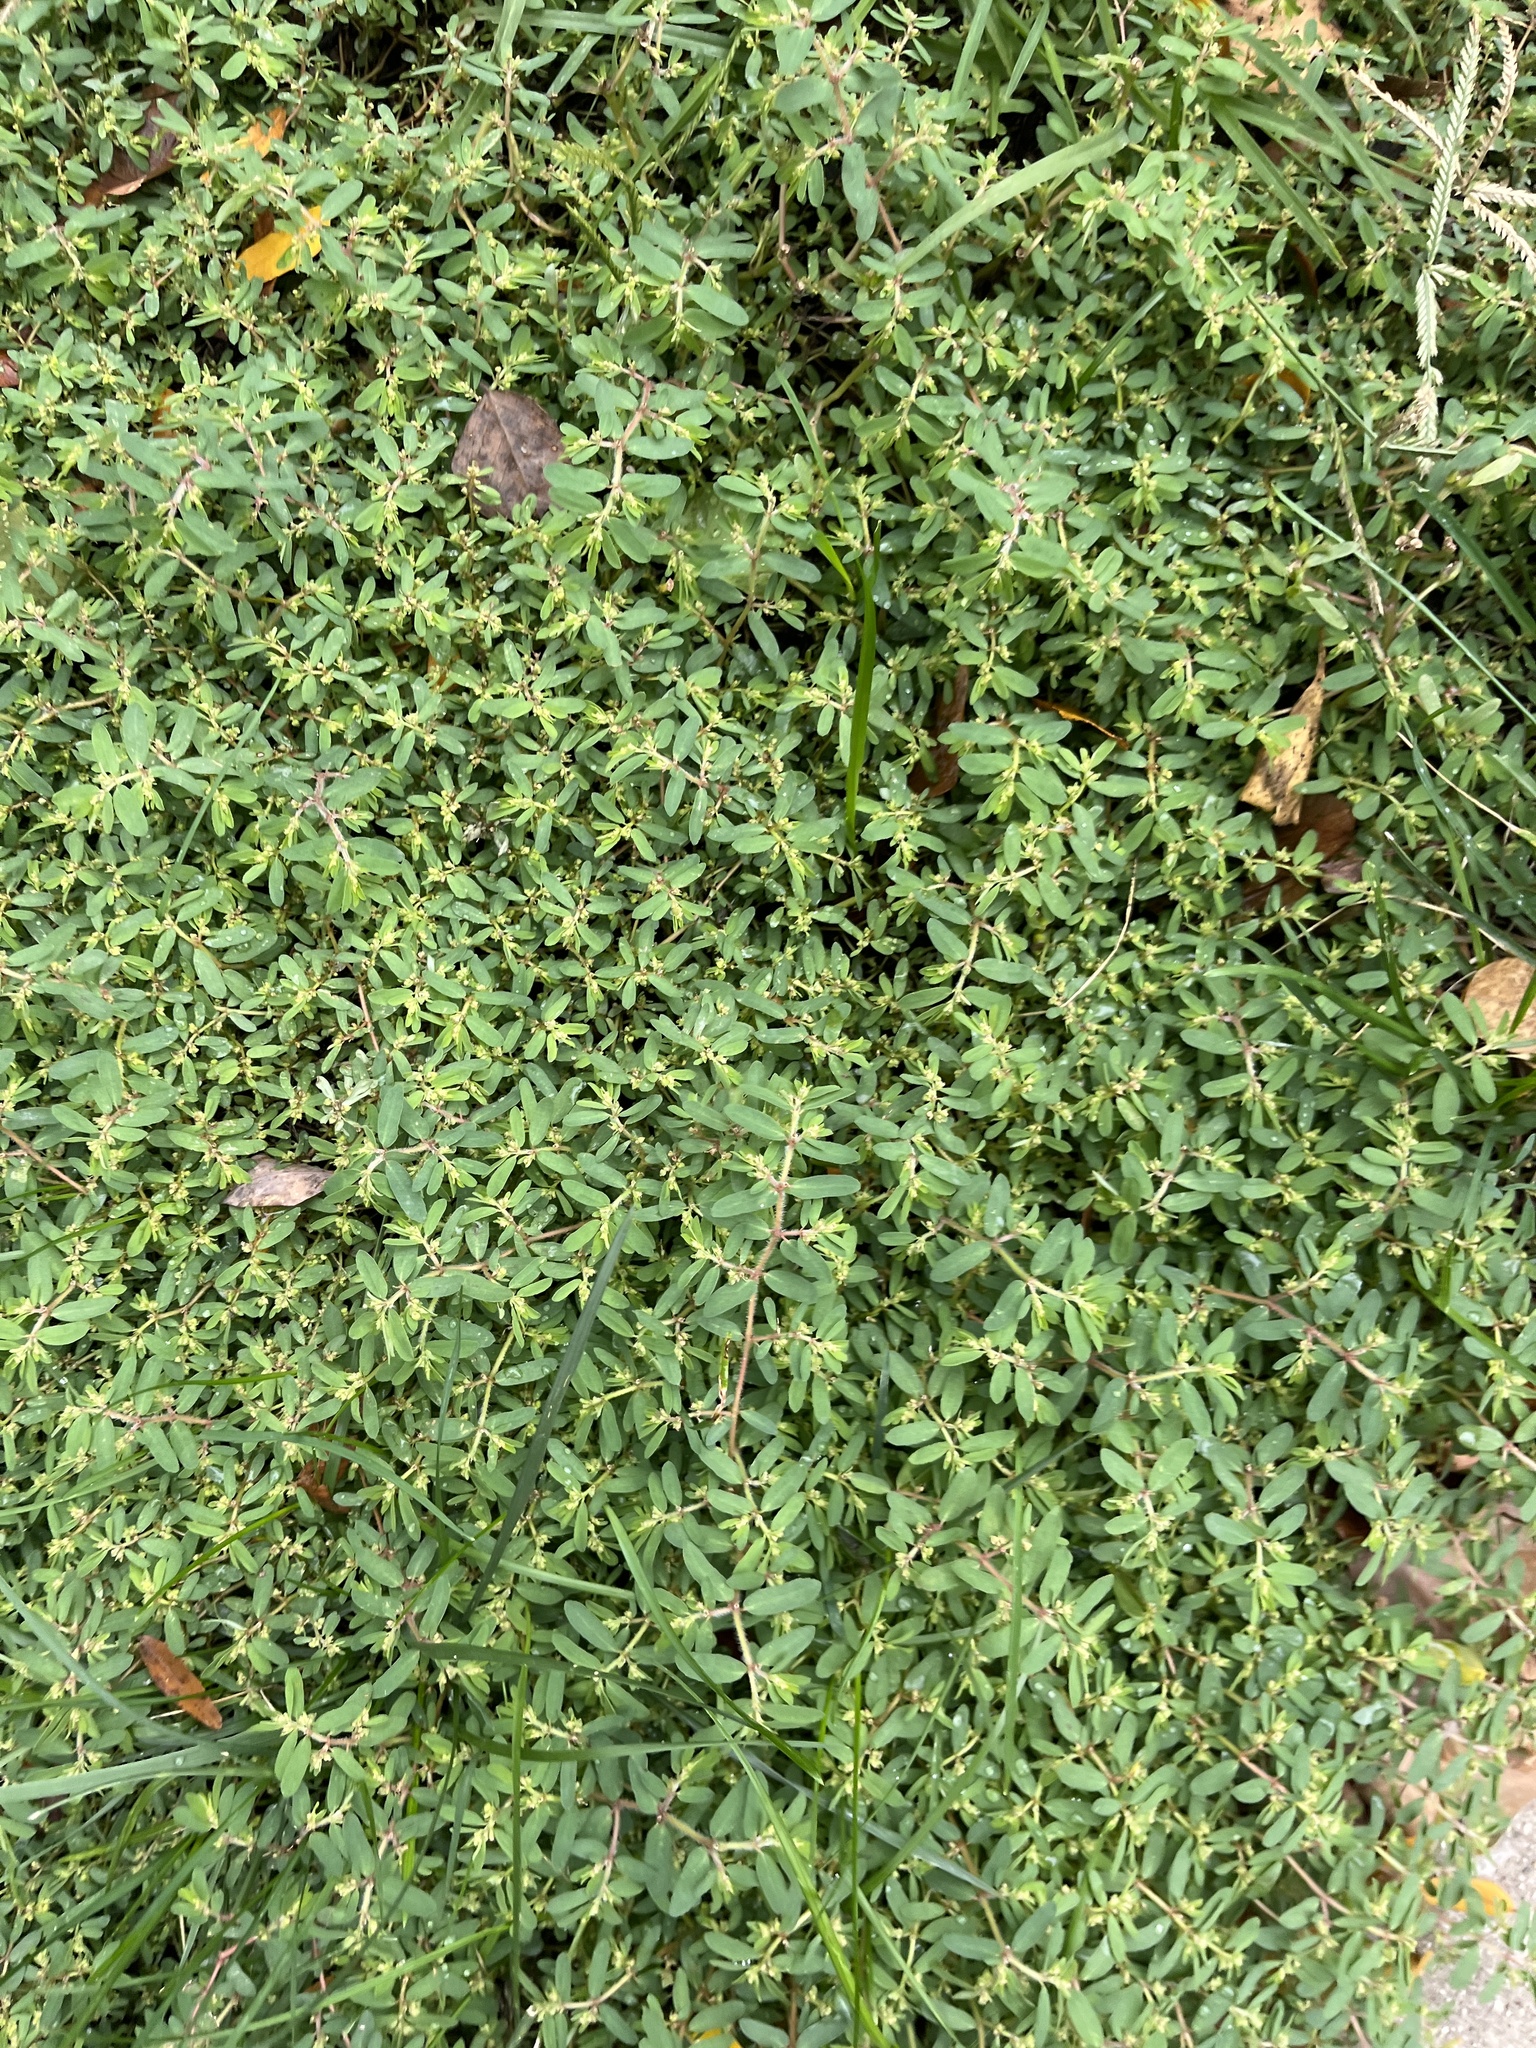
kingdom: Plantae
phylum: Tracheophyta
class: Magnoliopsida
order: Malpighiales
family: Euphorbiaceae
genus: Euphorbia
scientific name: Euphorbia maculata
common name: Spotted spurge
